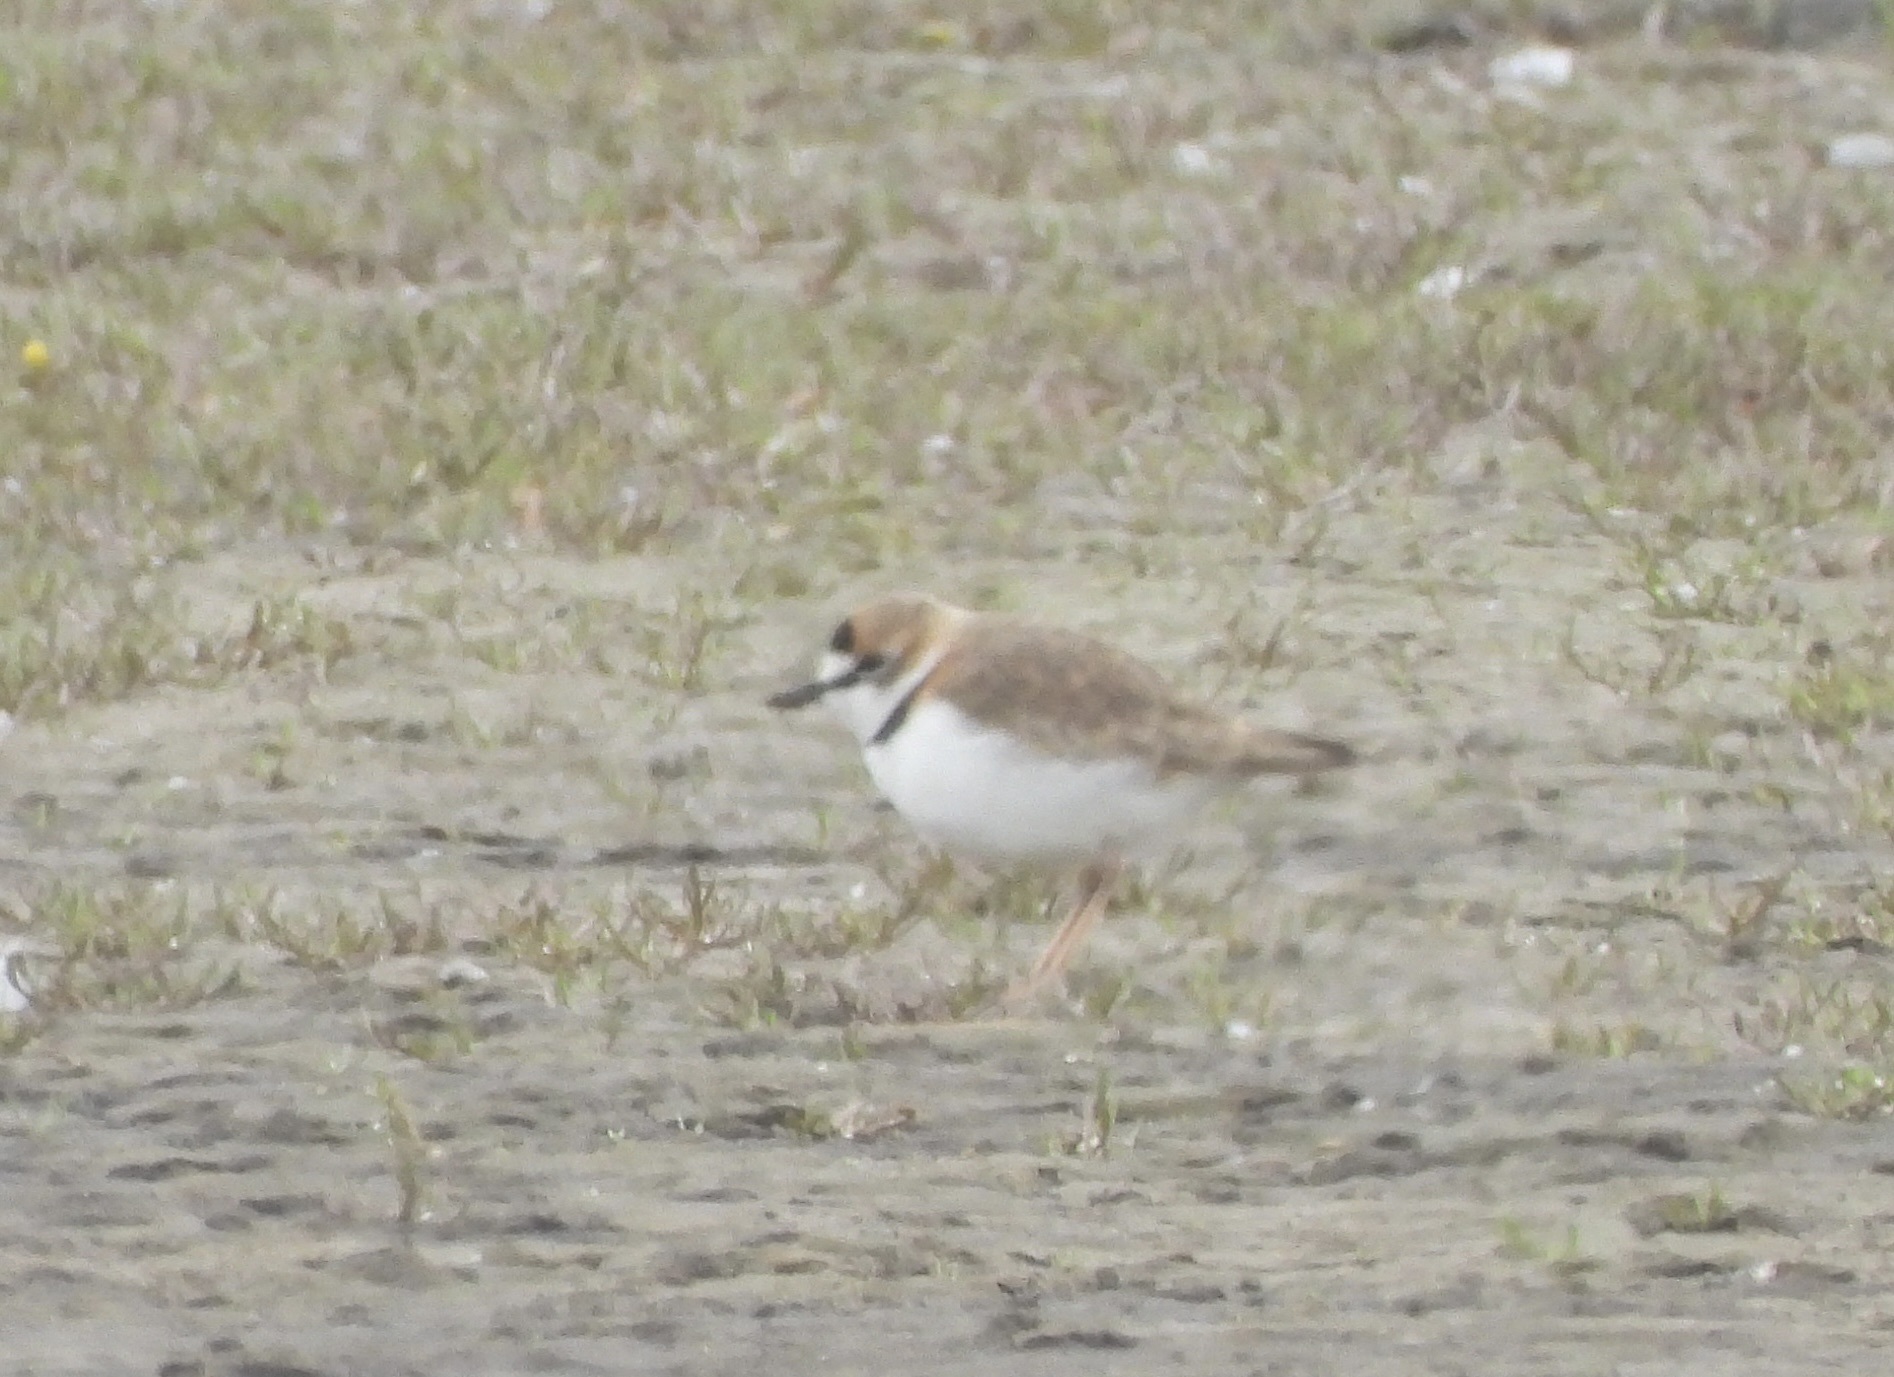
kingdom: Animalia
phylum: Chordata
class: Aves
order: Charadriiformes
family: Charadriidae
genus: Anarhynchus
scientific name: Anarhynchus
